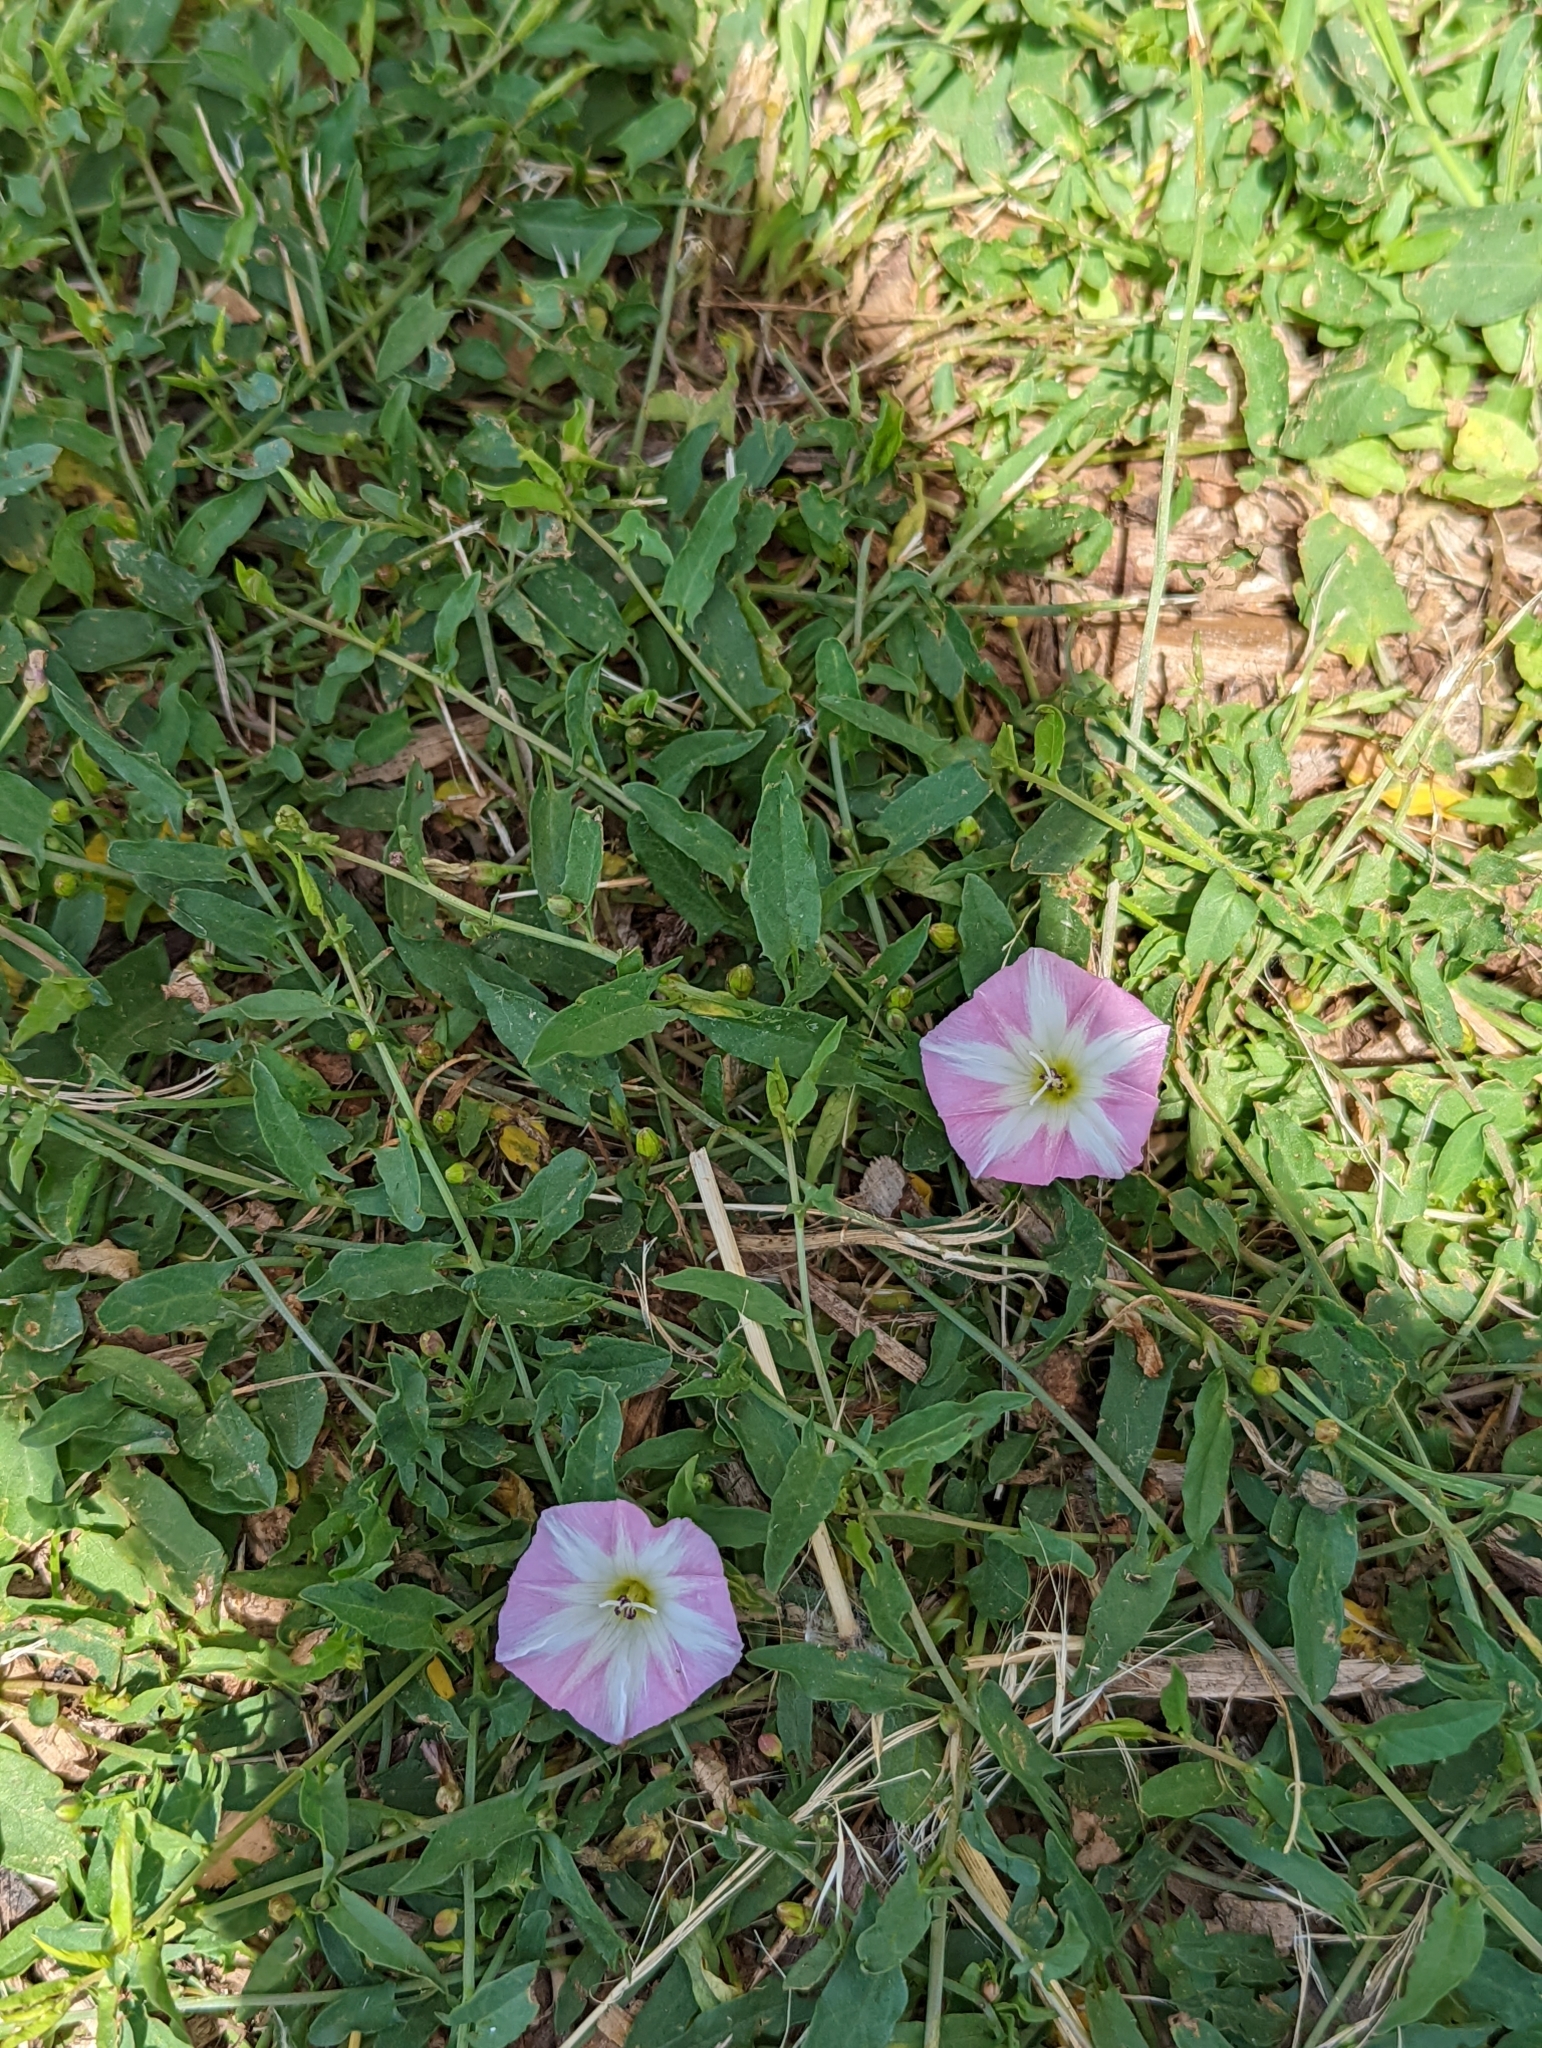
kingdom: Plantae
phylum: Tracheophyta
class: Magnoliopsida
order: Solanales
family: Convolvulaceae
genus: Convolvulus
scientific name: Convolvulus arvensis
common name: Field bindweed
